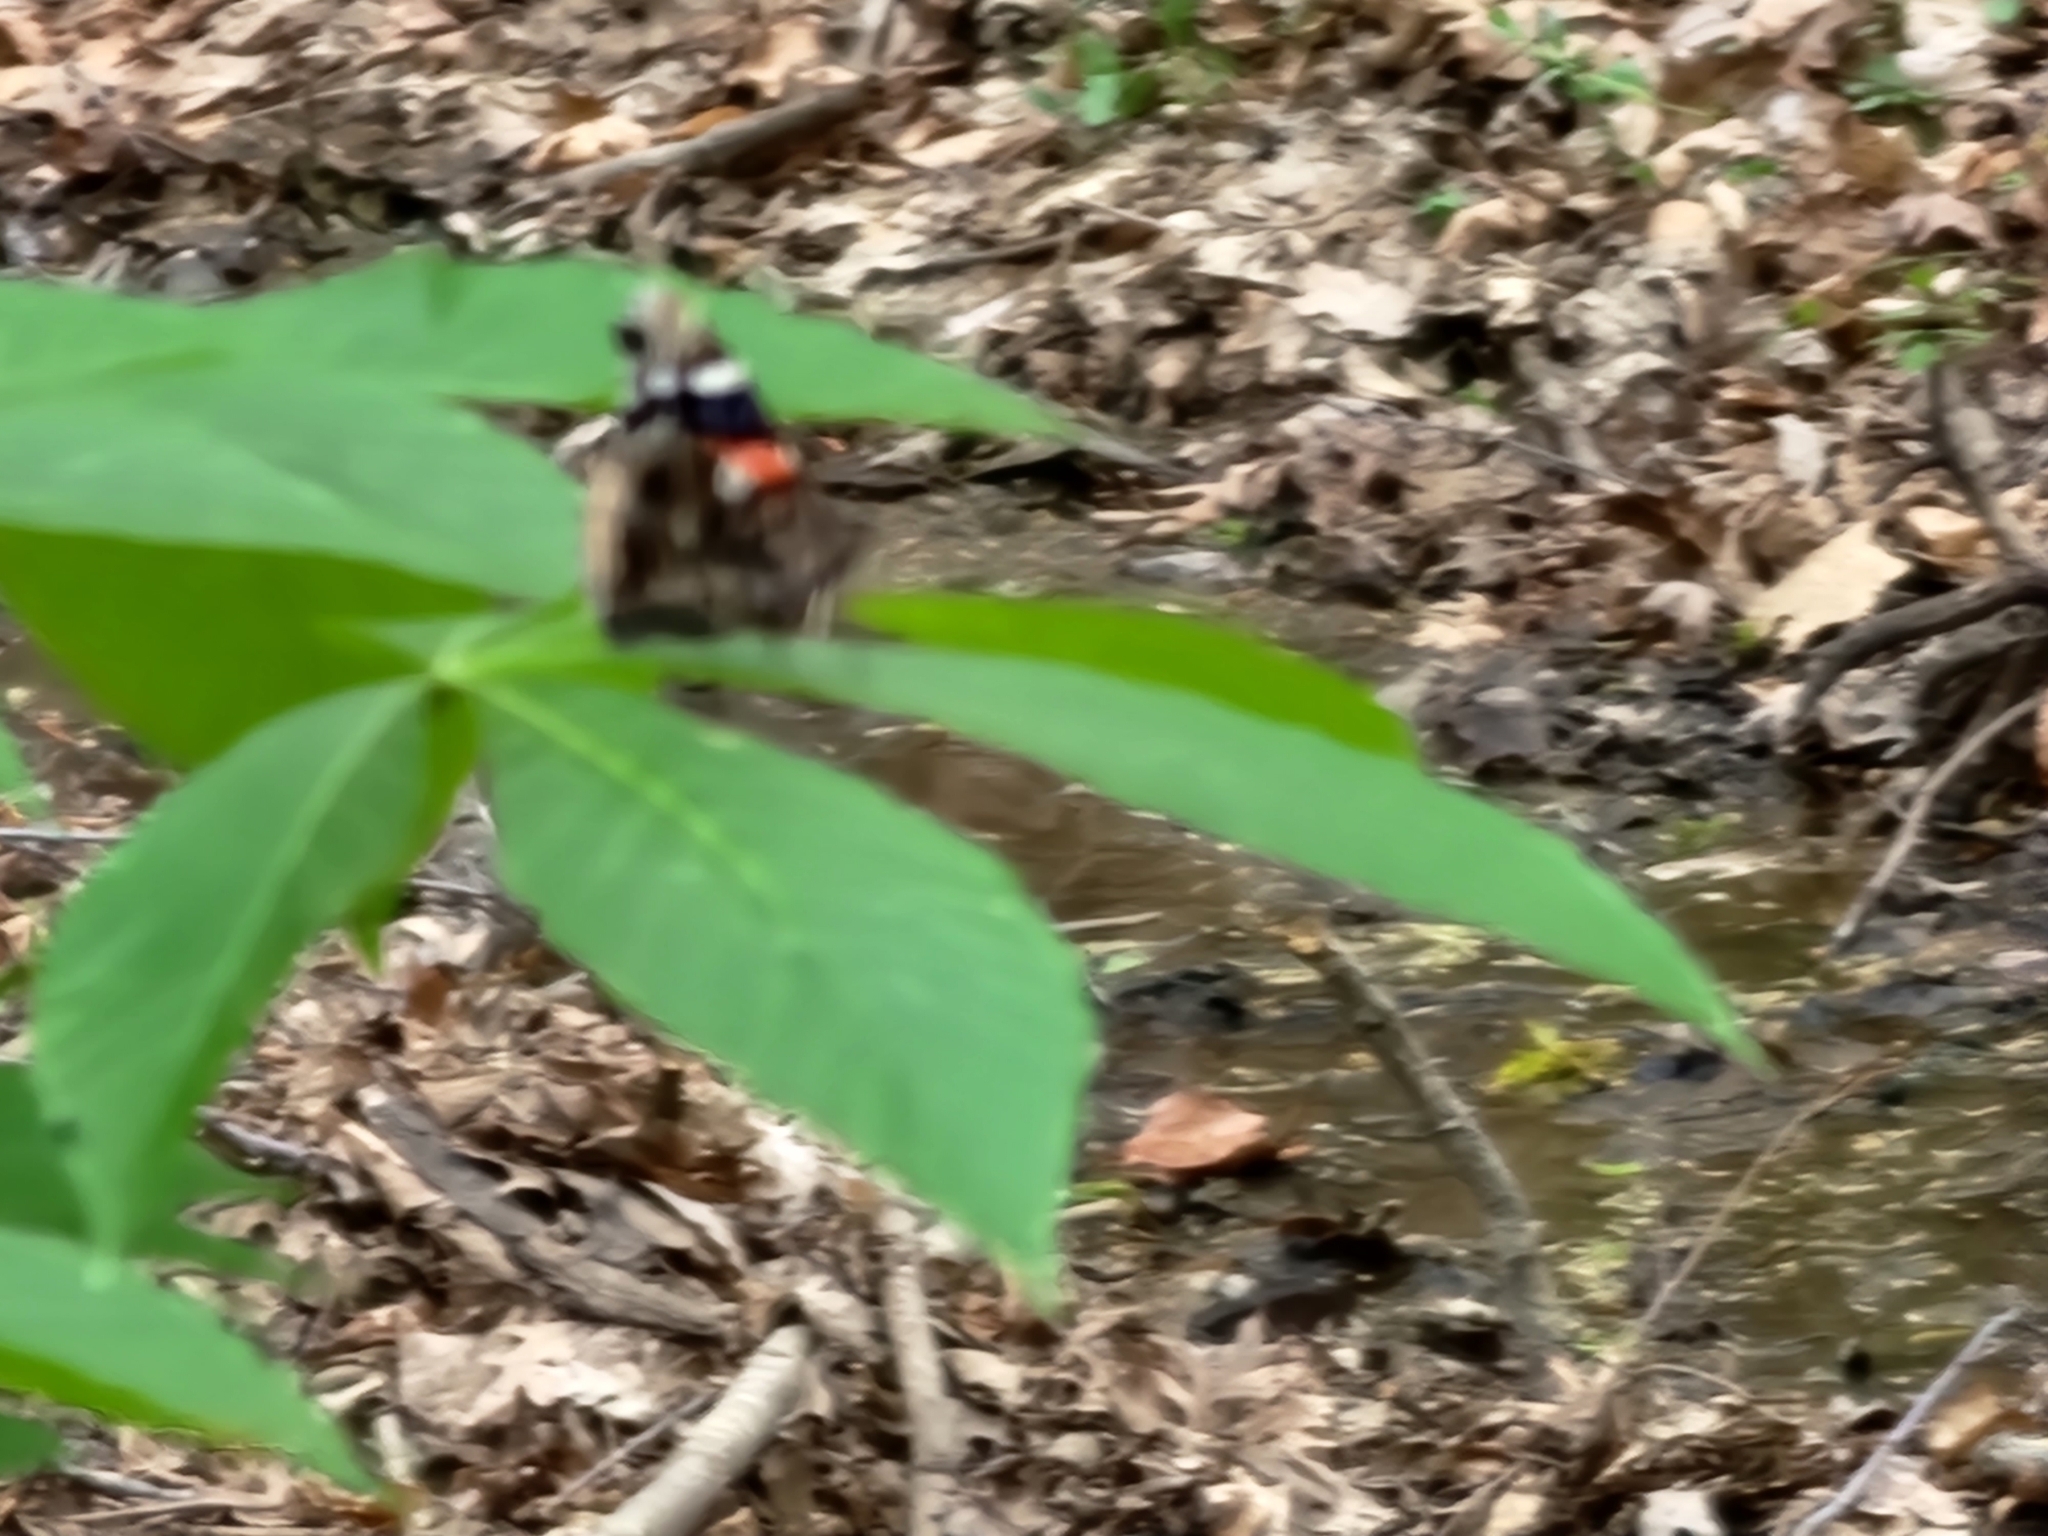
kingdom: Animalia
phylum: Arthropoda
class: Insecta
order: Lepidoptera
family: Nymphalidae
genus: Vanessa
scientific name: Vanessa atalanta
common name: Red admiral
